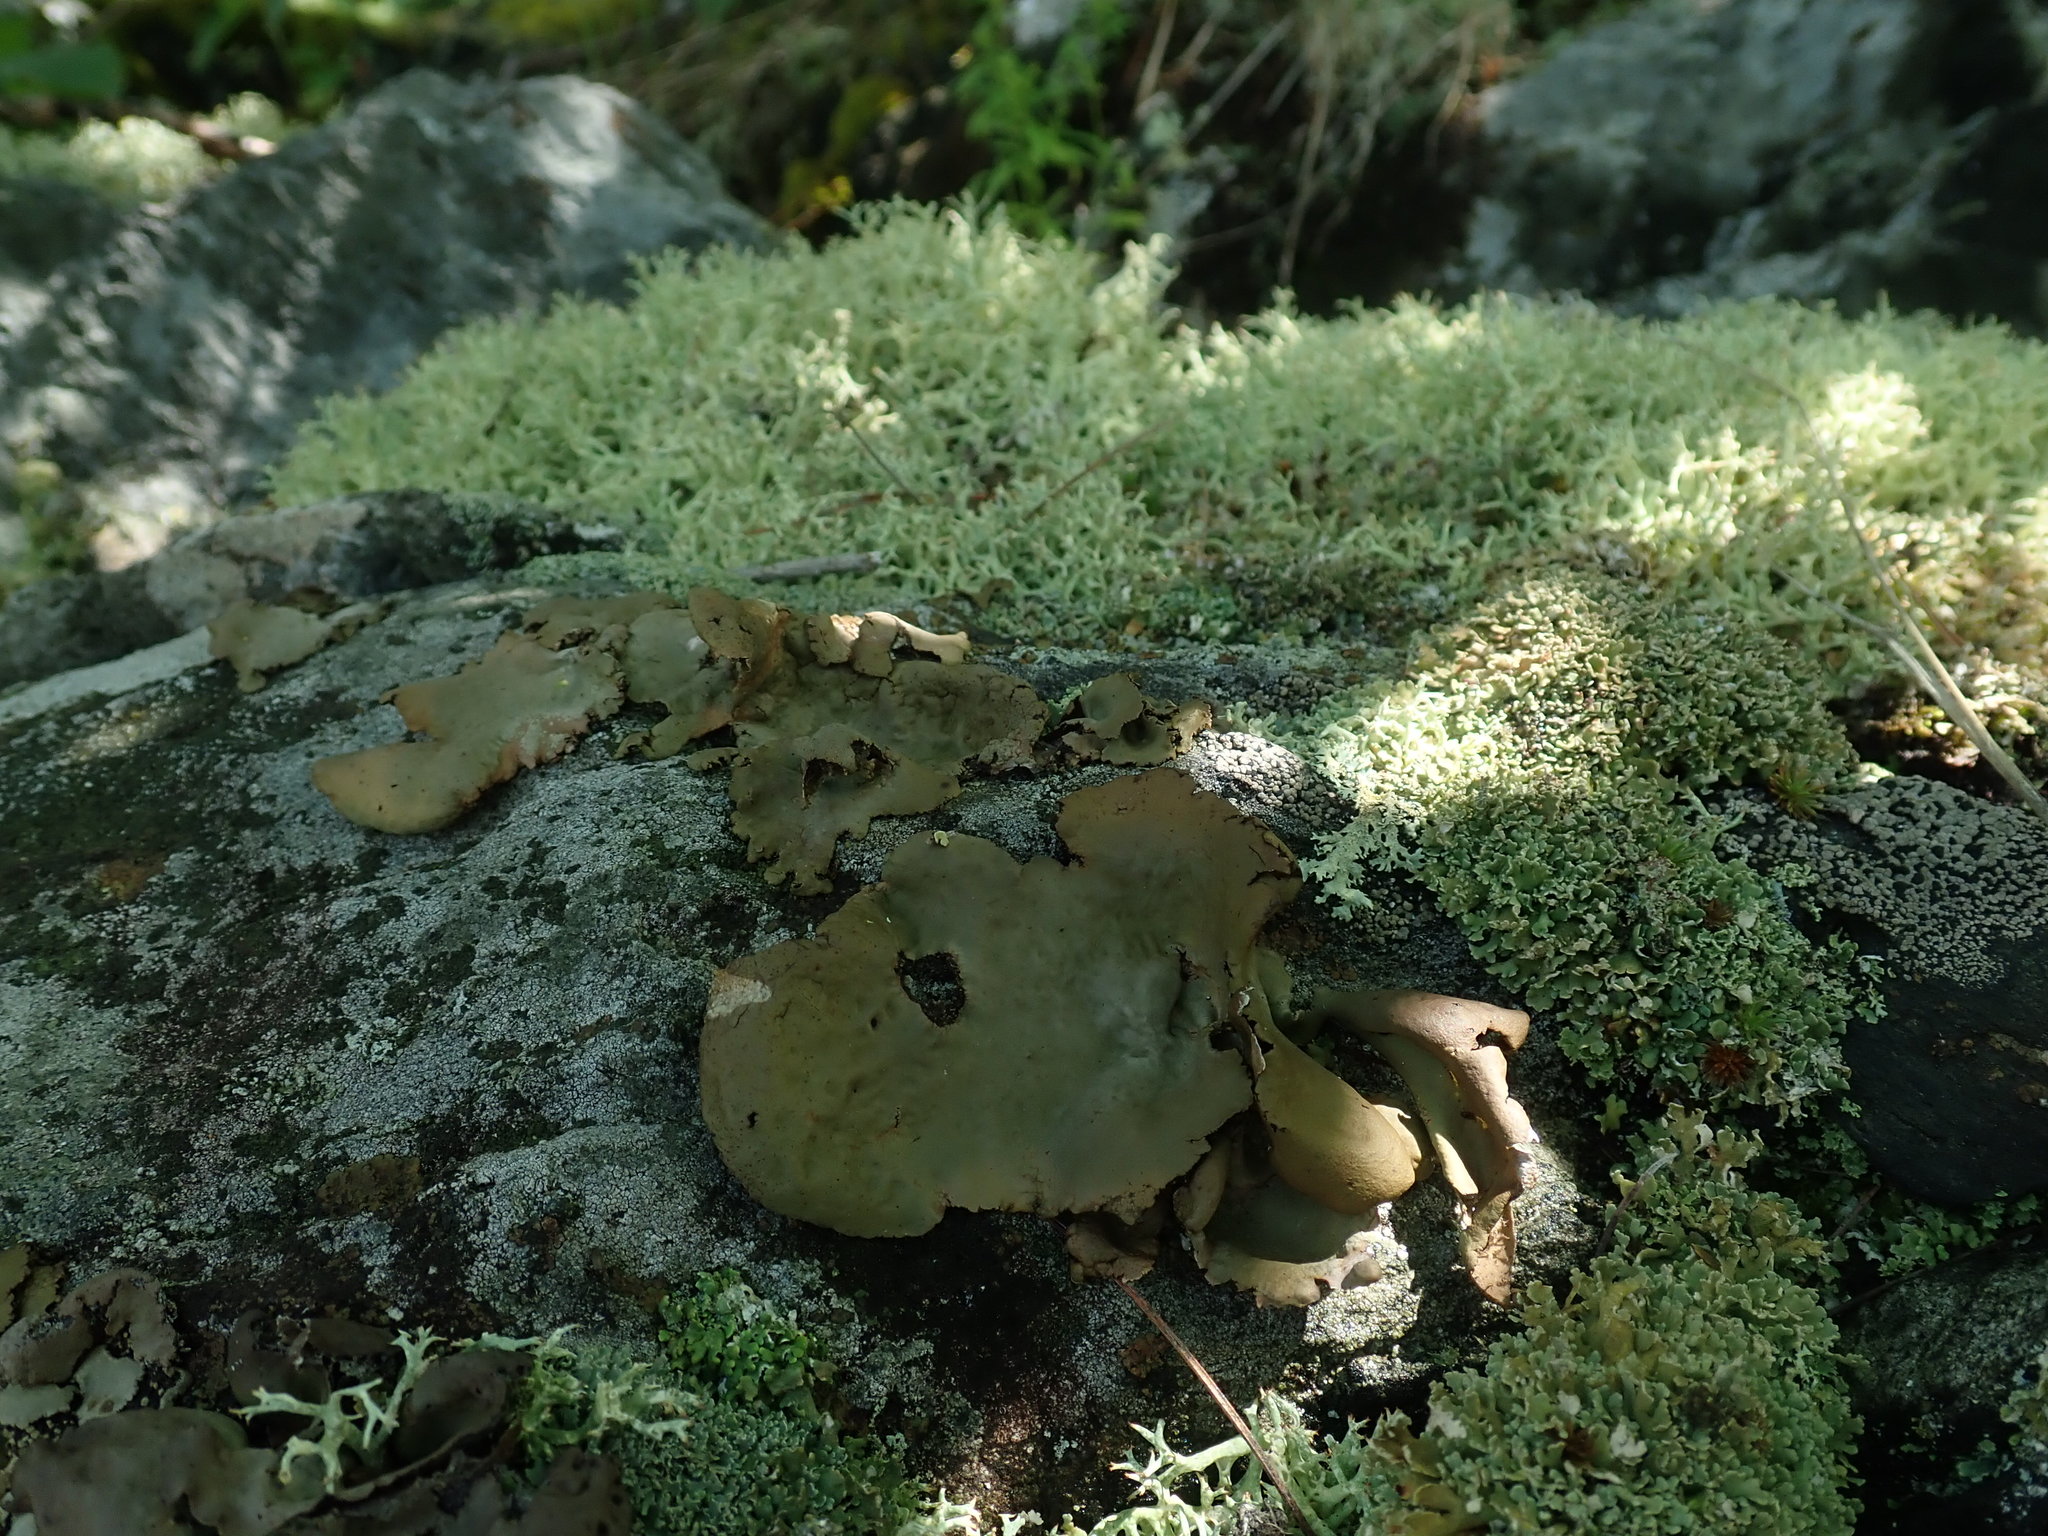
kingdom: Fungi
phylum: Ascomycota
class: Lecanoromycetes
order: Umbilicariales
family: Umbilicariaceae
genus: Umbilicaria
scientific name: Umbilicaria mammulata
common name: Smooth rock tripe
